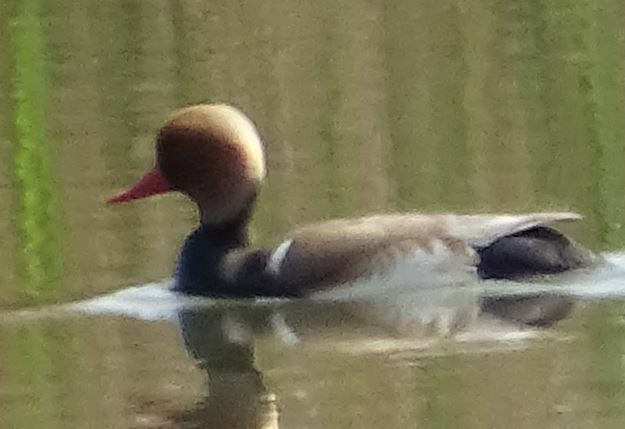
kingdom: Animalia
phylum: Chordata
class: Aves
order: Anseriformes
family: Anatidae
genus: Netta
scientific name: Netta rufina
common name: Red-crested pochard
